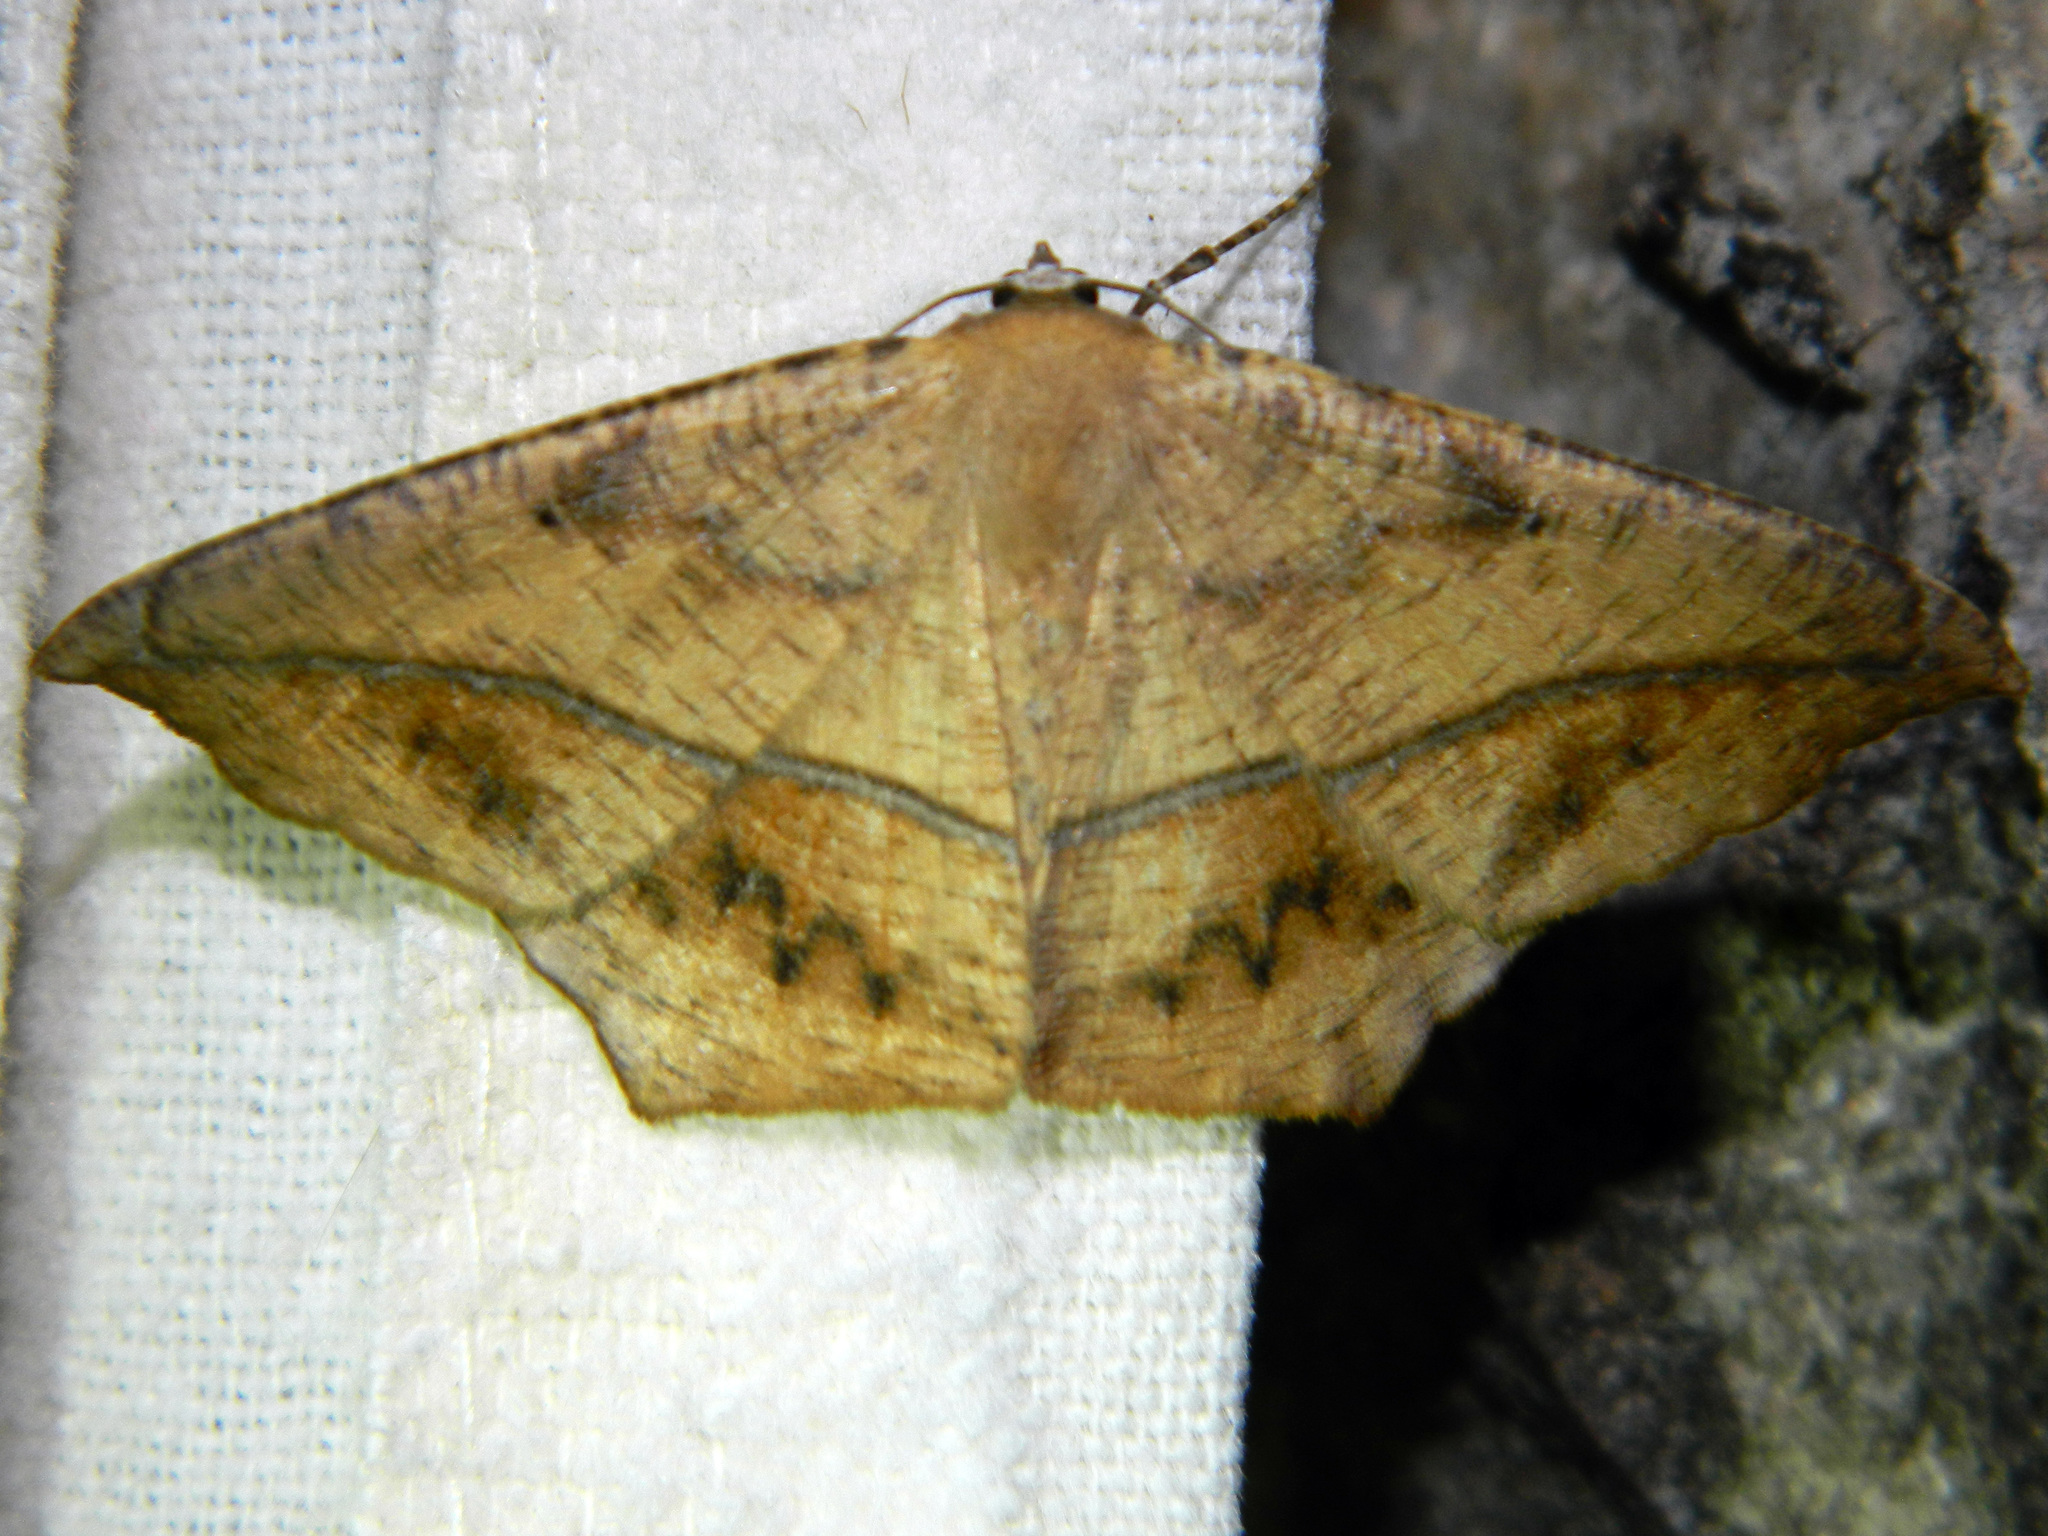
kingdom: Animalia
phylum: Arthropoda
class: Insecta
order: Lepidoptera
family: Geometridae
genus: Prochoerodes
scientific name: Prochoerodes lineola
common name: Large maple spanworm
